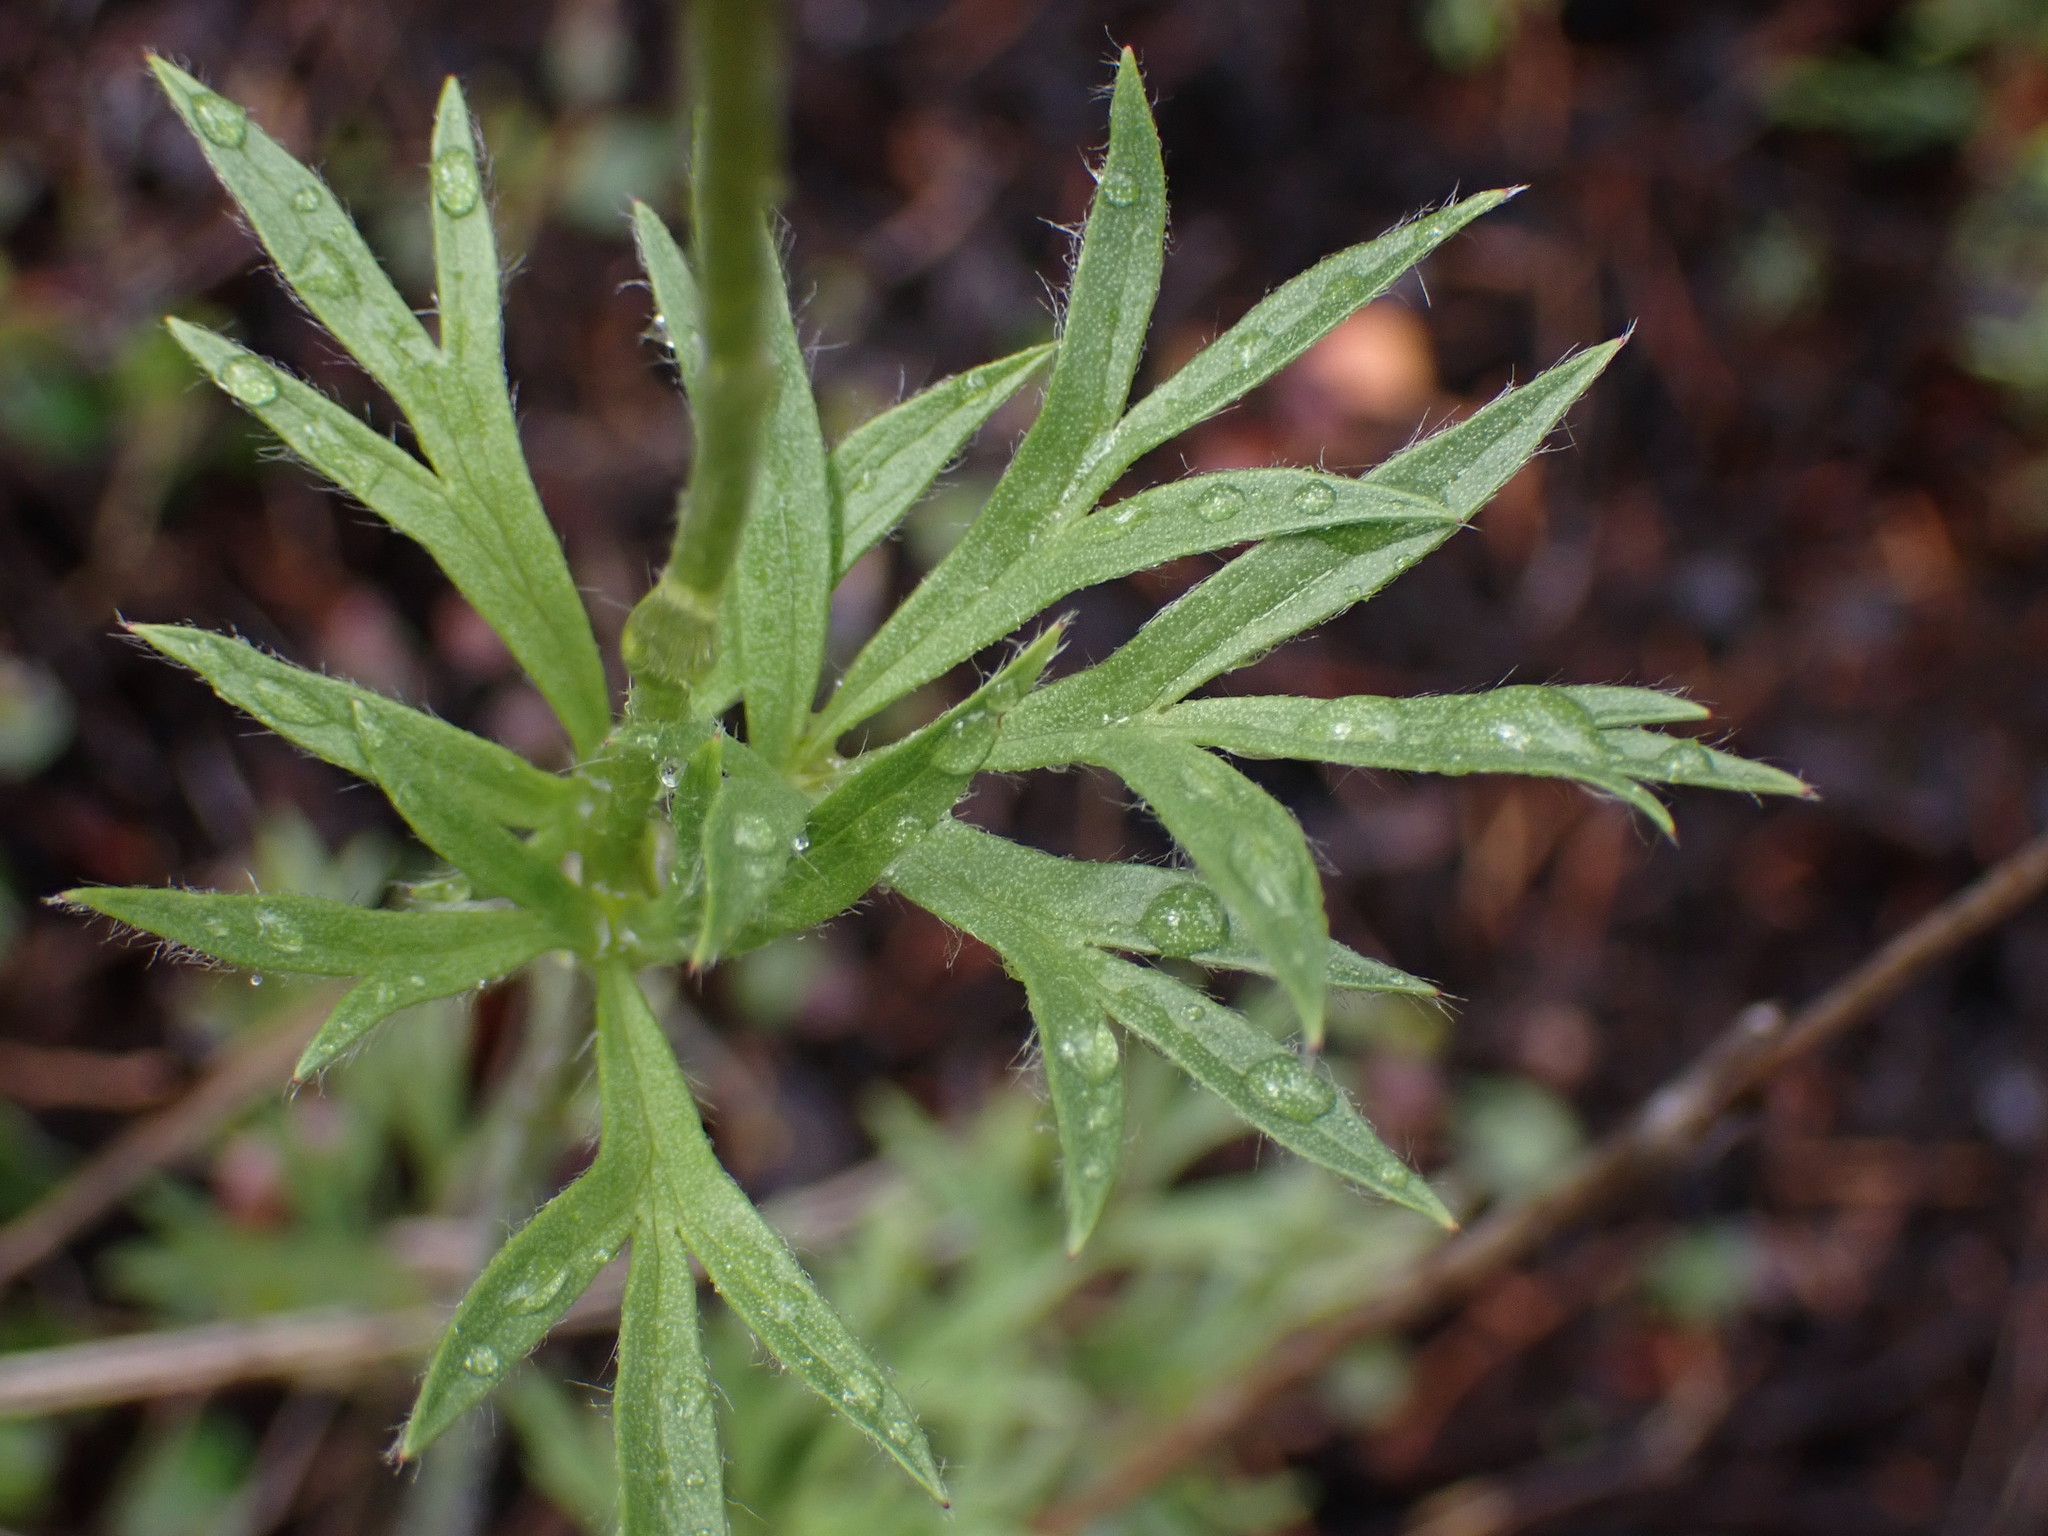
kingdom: Plantae
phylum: Tracheophyta
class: Magnoliopsida
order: Ranunculales
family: Ranunculaceae
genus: Anemone
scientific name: Anemone multifida
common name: Bird's-foot anemone
